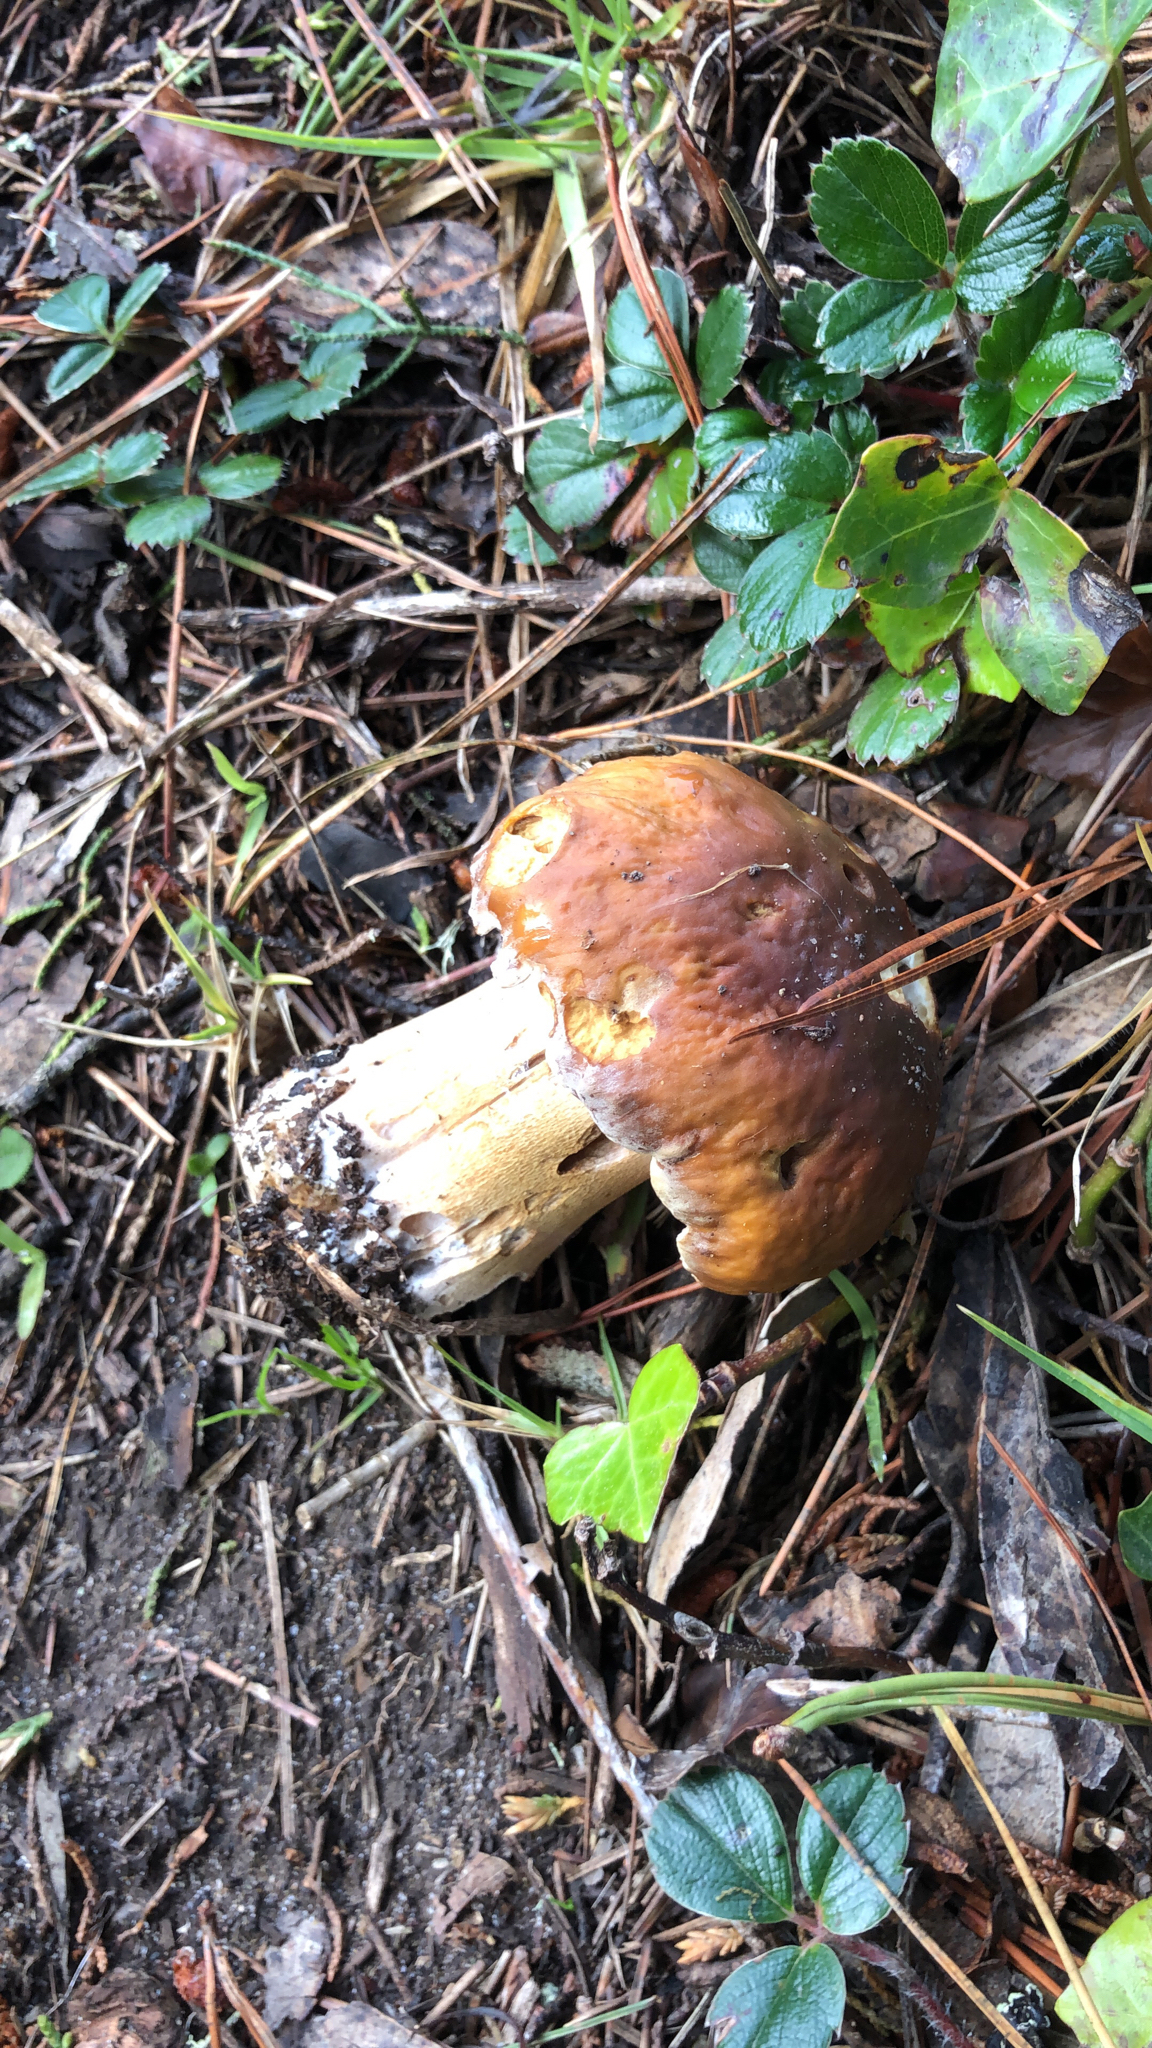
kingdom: Fungi
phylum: Basidiomycota
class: Agaricomycetes
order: Boletales
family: Boletaceae
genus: Boletus
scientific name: Boletus edulis
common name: Cep
